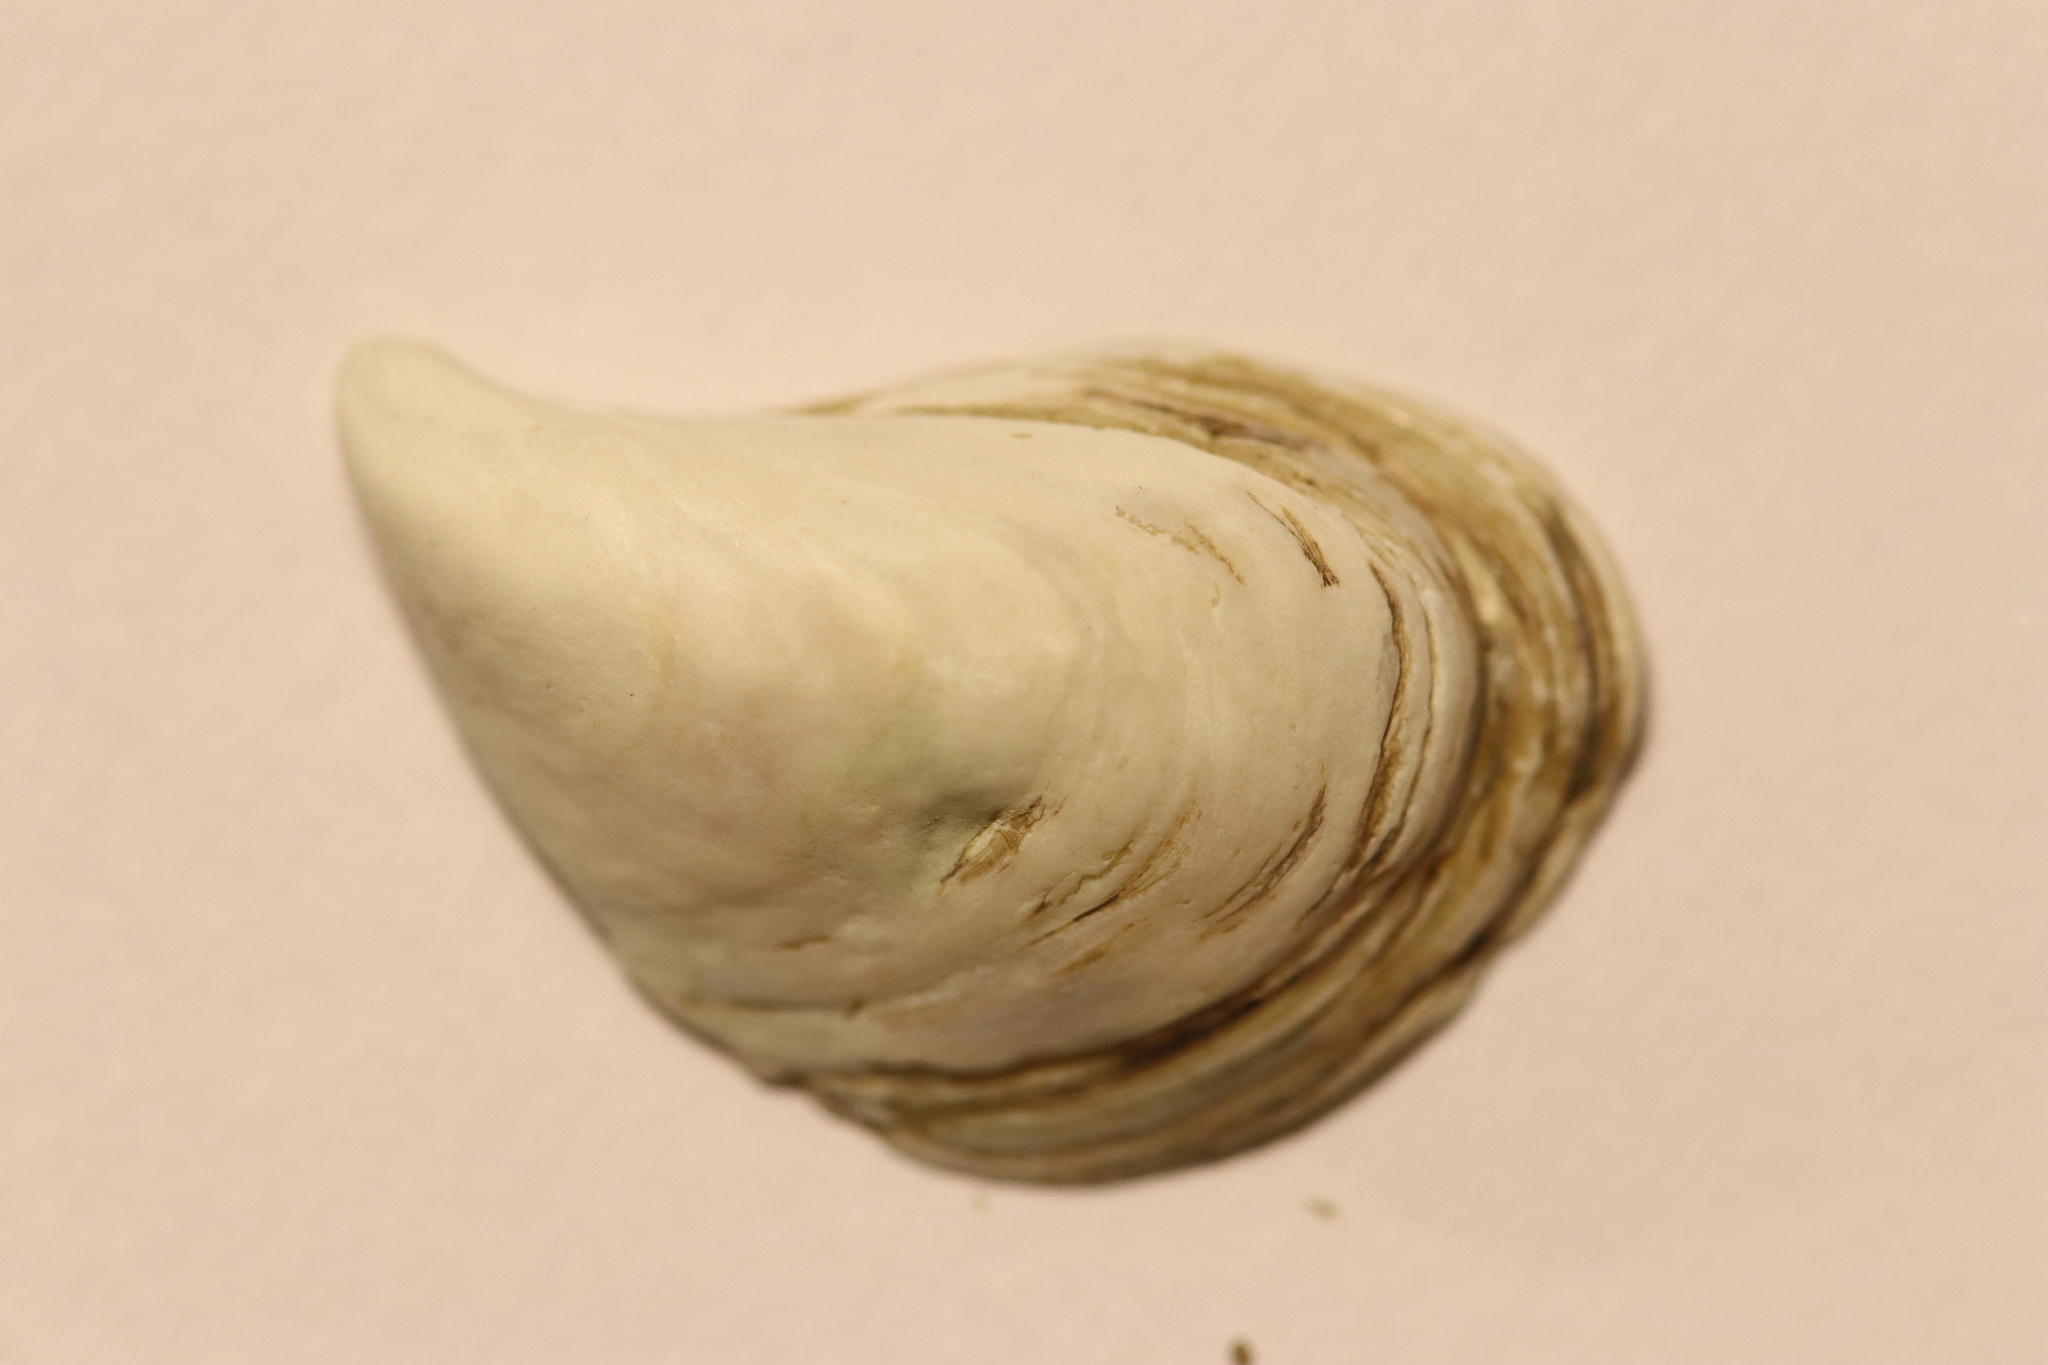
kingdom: Animalia
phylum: Mollusca
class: Bivalvia
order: Myida
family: Dreissenidae
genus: Dreissena
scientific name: Dreissena bugensis
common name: Quagga mussel
